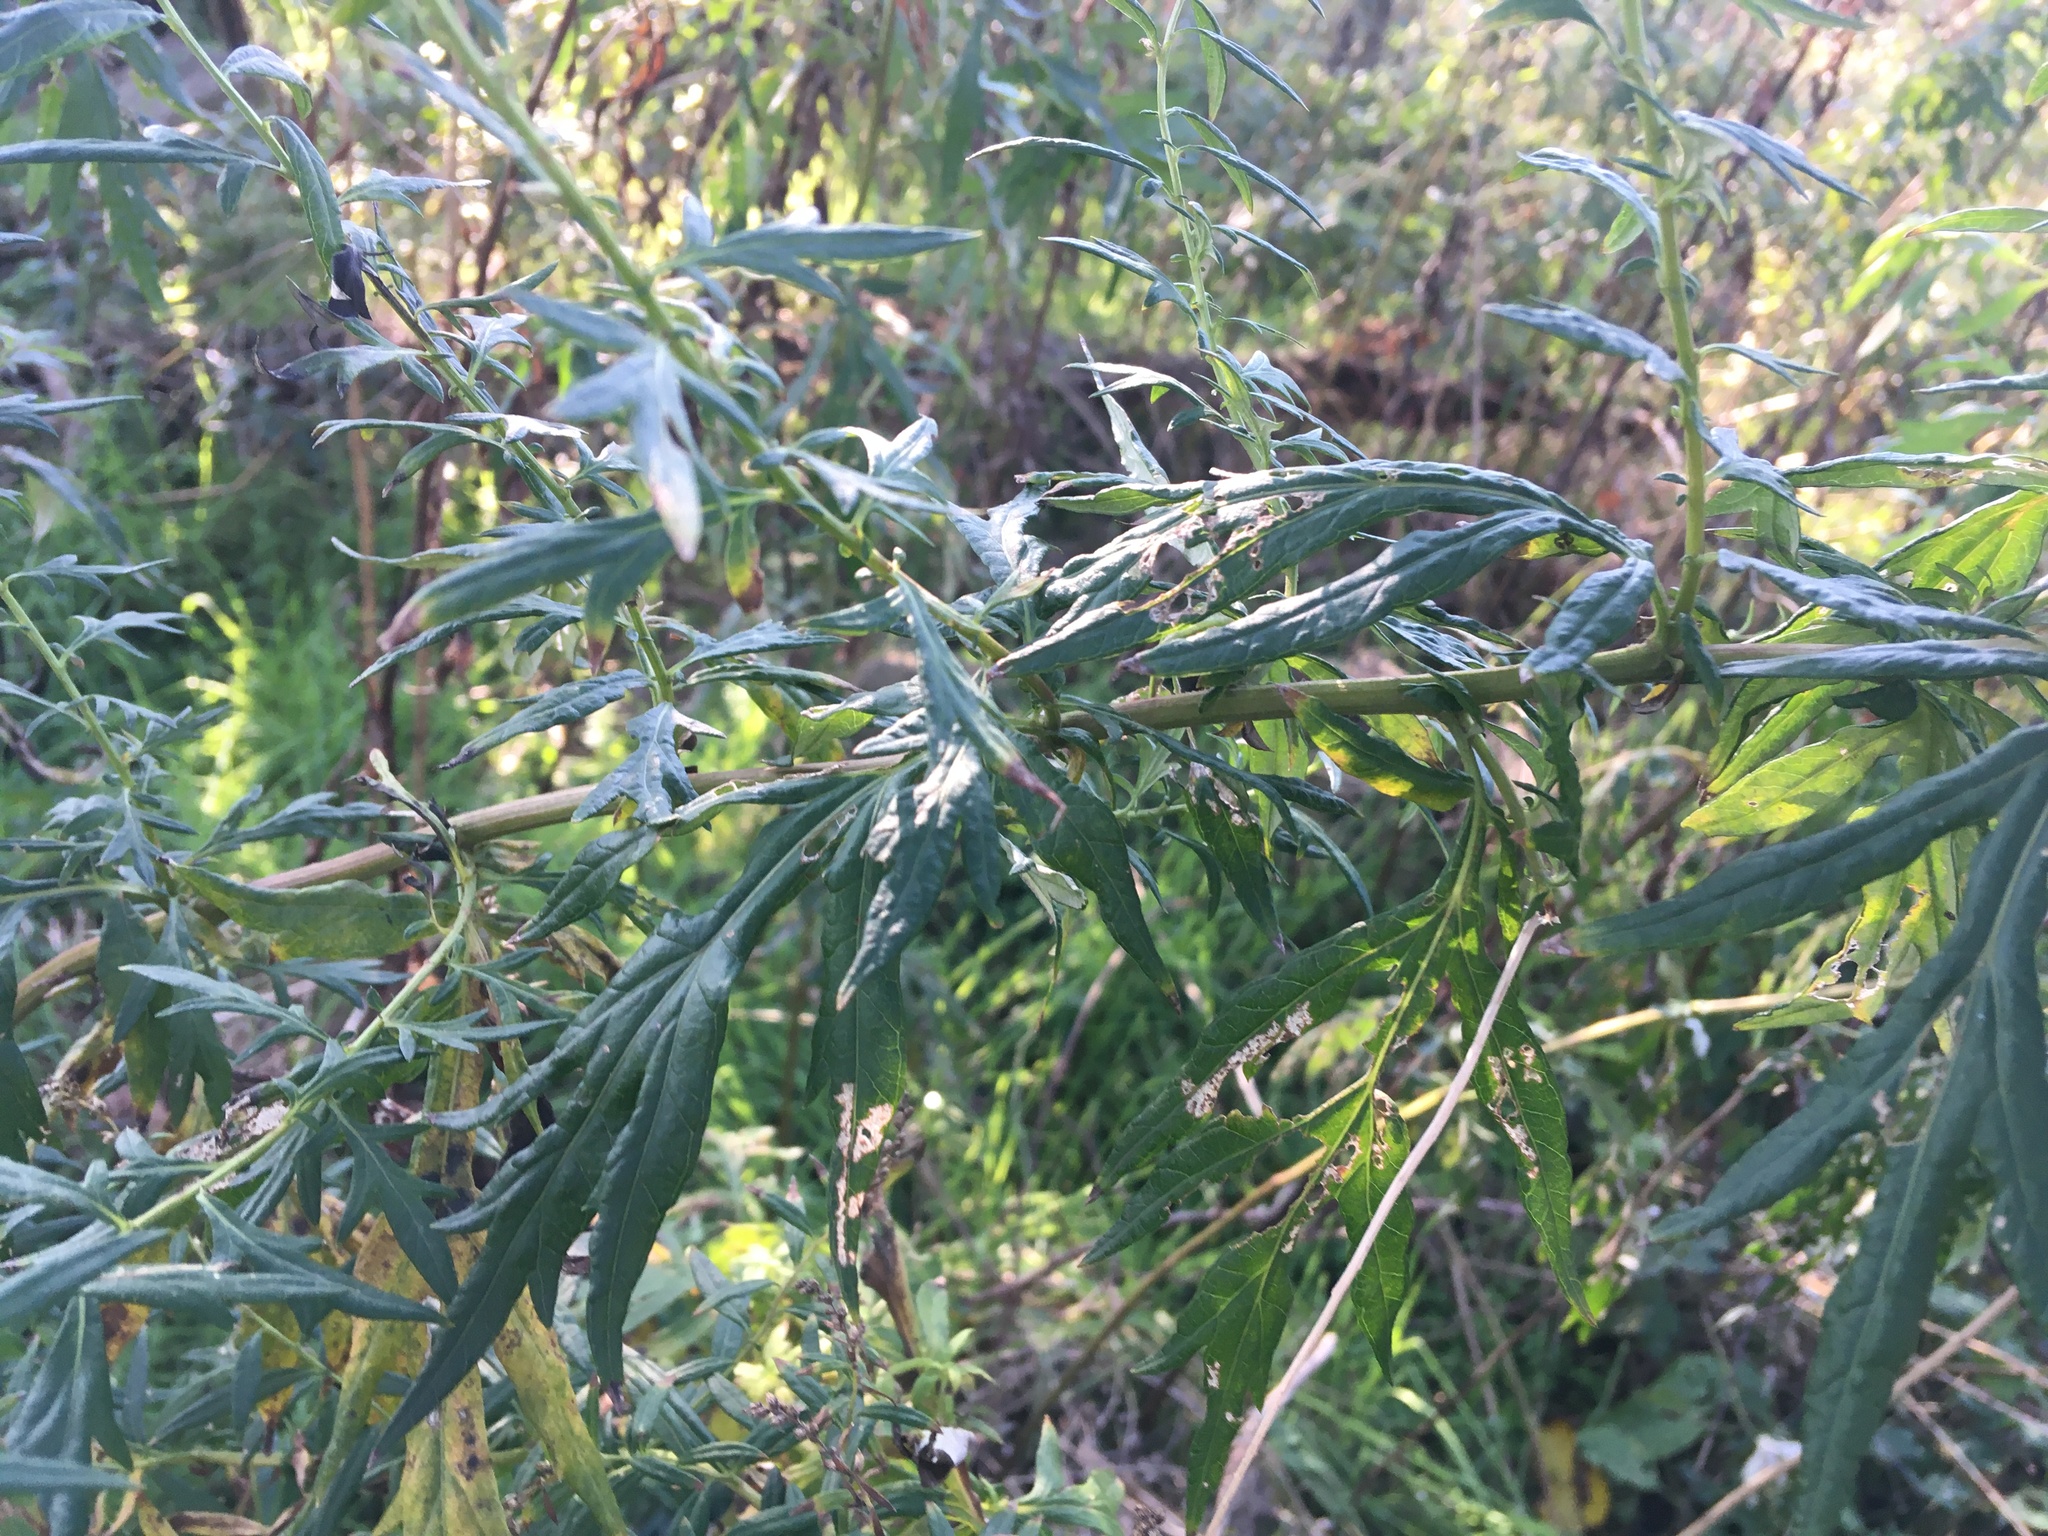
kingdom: Plantae
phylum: Tracheophyta
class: Magnoliopsida
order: Asterales
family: Asteraceae
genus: Artemisia
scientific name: Artemisia vulgaris
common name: Mugwort
